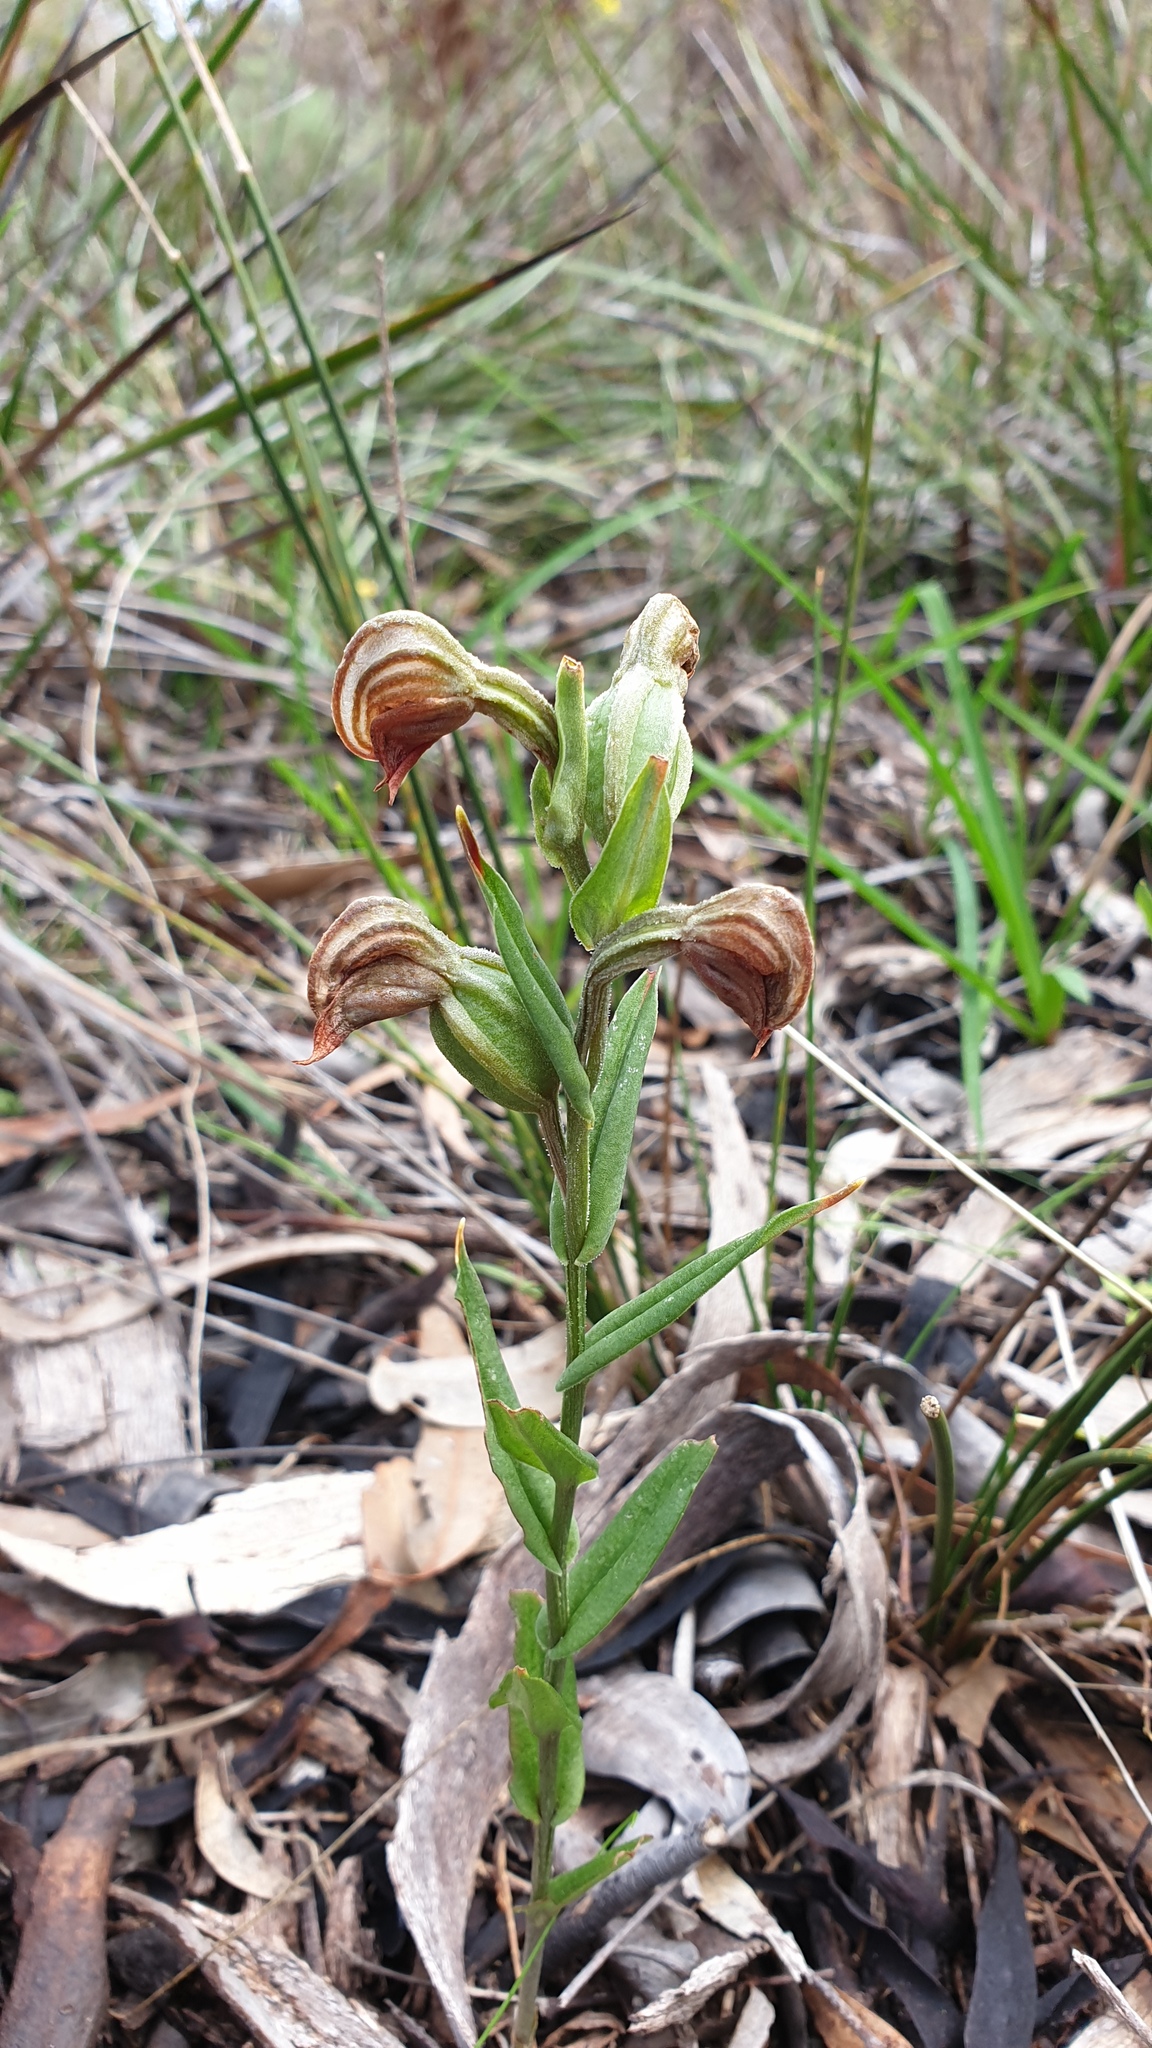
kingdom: Plantae
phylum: Tracheophyta
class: Liliopsida
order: Asparagales
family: Orchidaceae
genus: Pterostylis
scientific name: Pterostylis sanguinea
